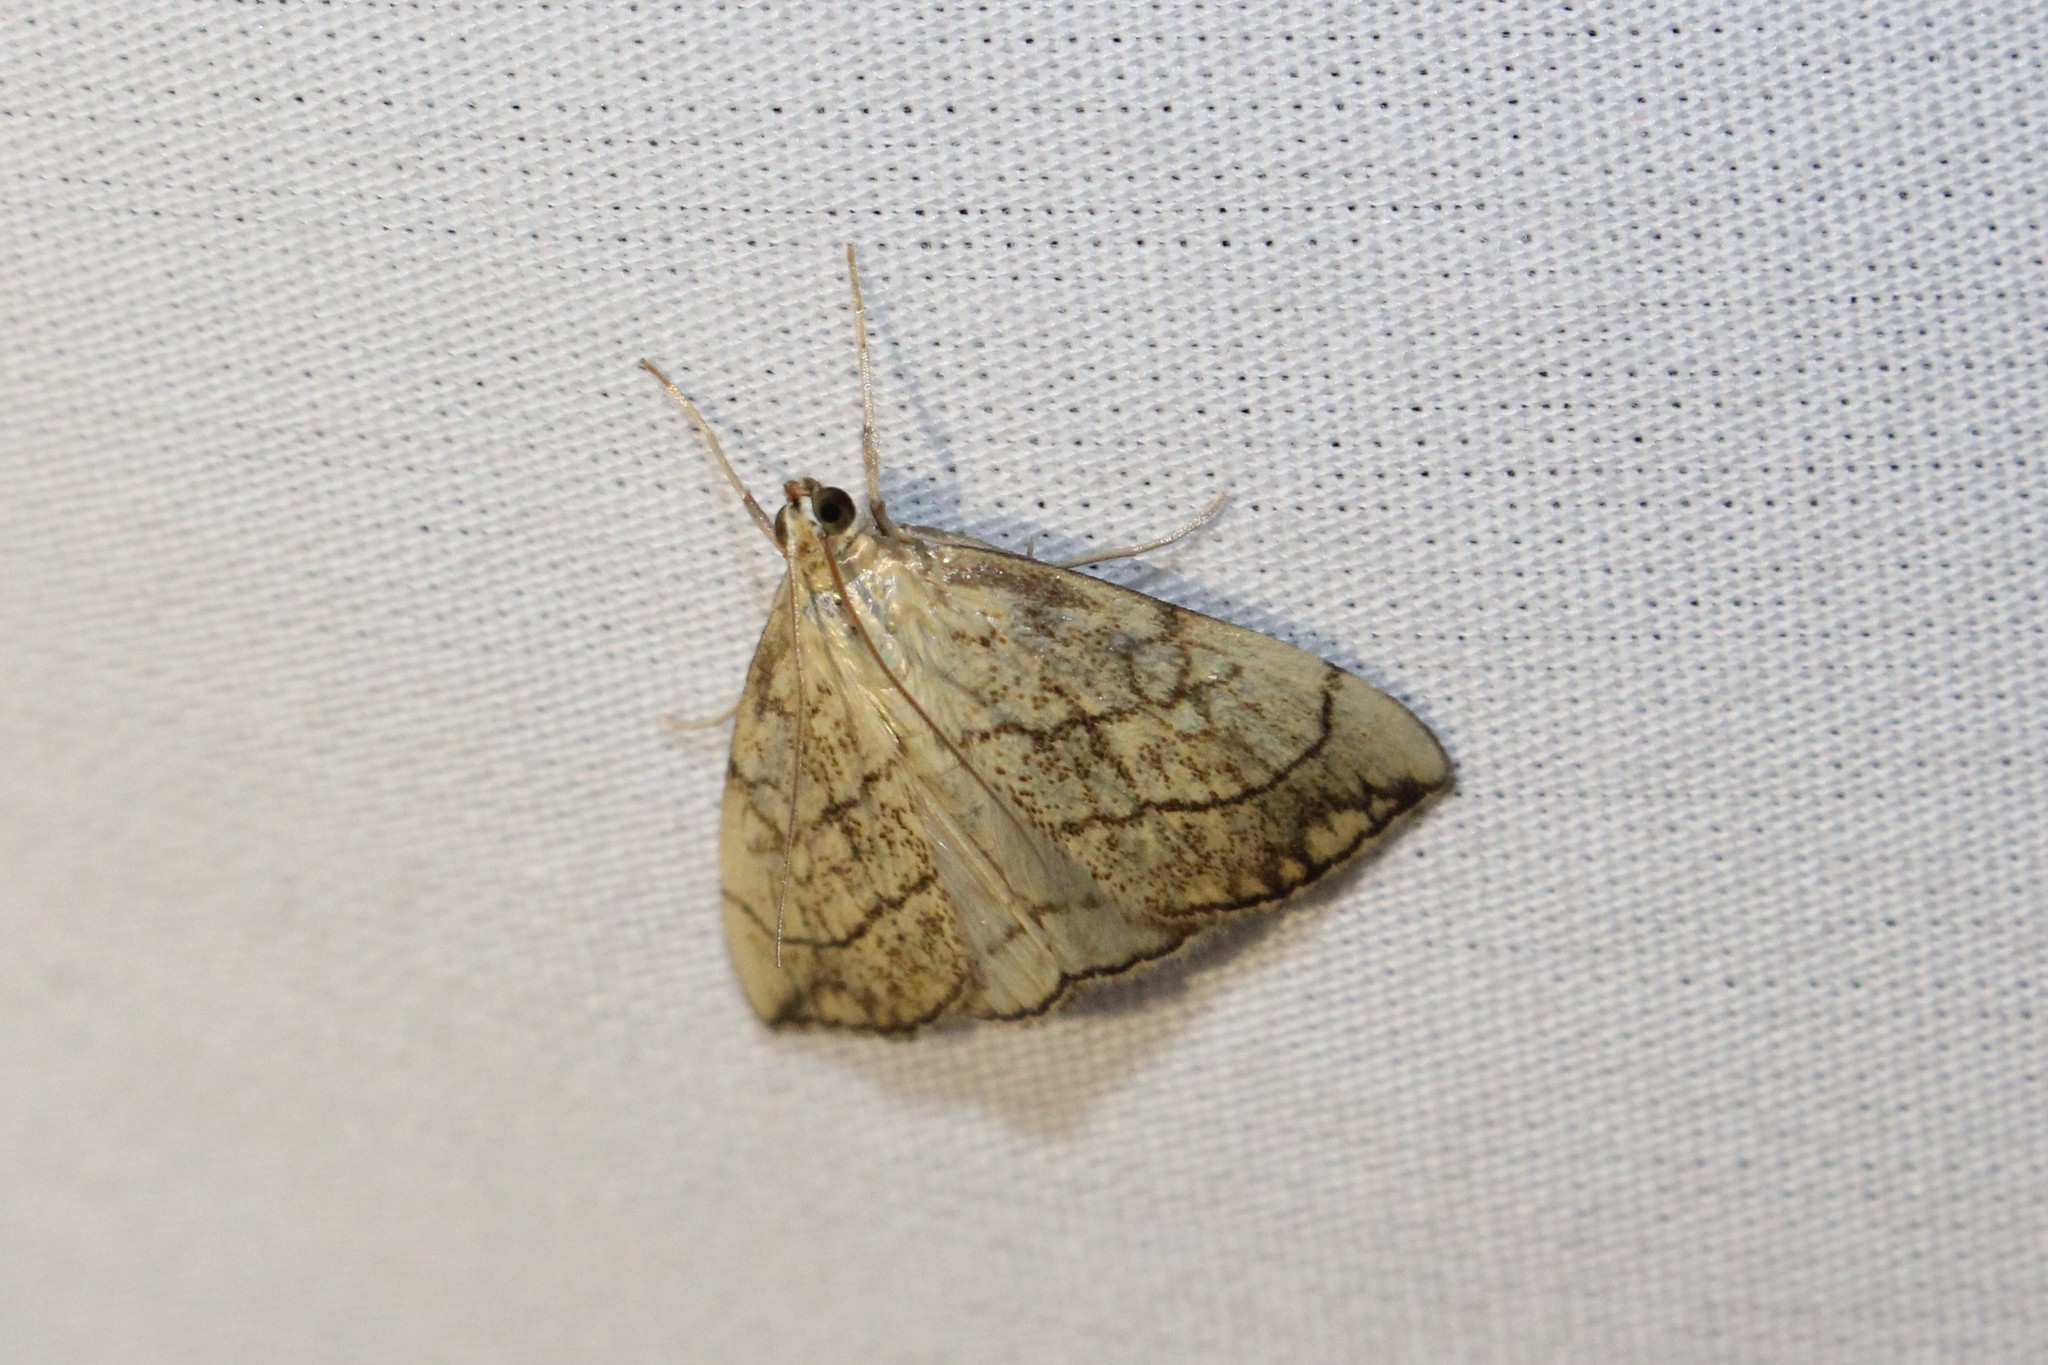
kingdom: Animalia
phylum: Arthropoda
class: Insecta
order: Lepidoptera
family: Crambidae
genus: Evergestis
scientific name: Evergestis pallidata
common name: Chequered pearl
